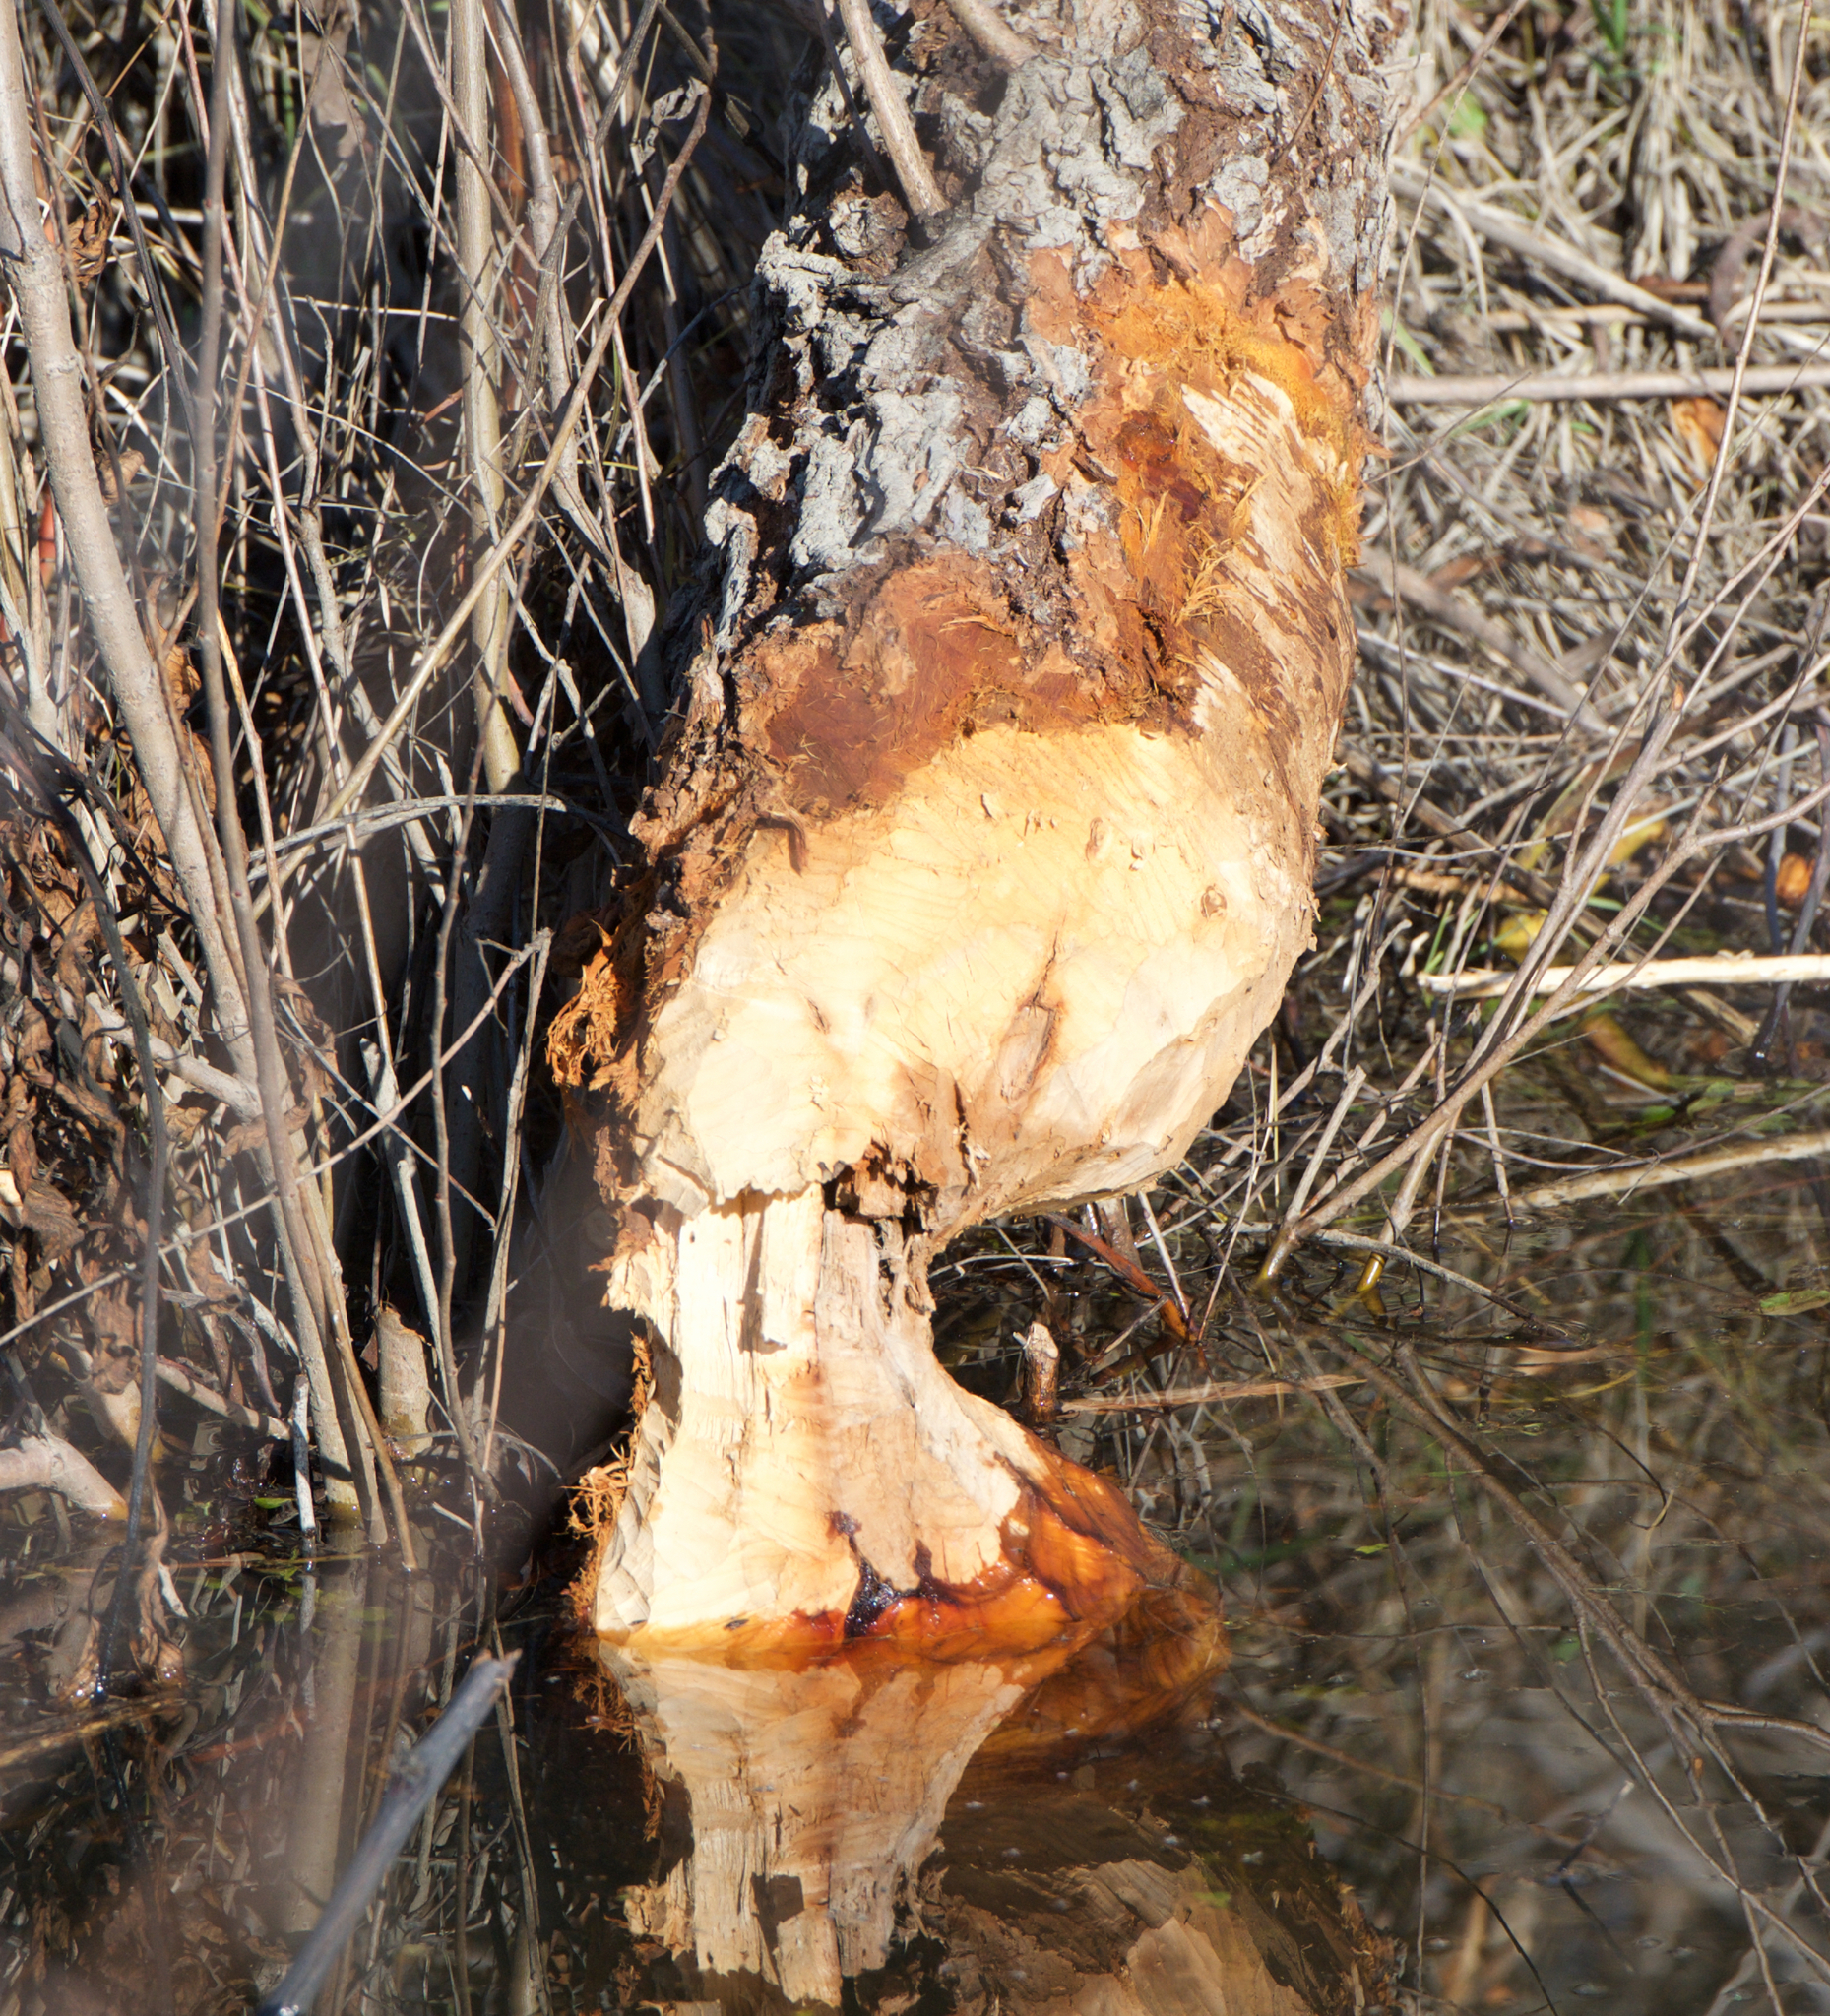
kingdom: Animalia
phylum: Chordata
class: Mammalia
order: Rodentia
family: Castoridae
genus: Castor
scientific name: Castor canadensis
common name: American beaver
